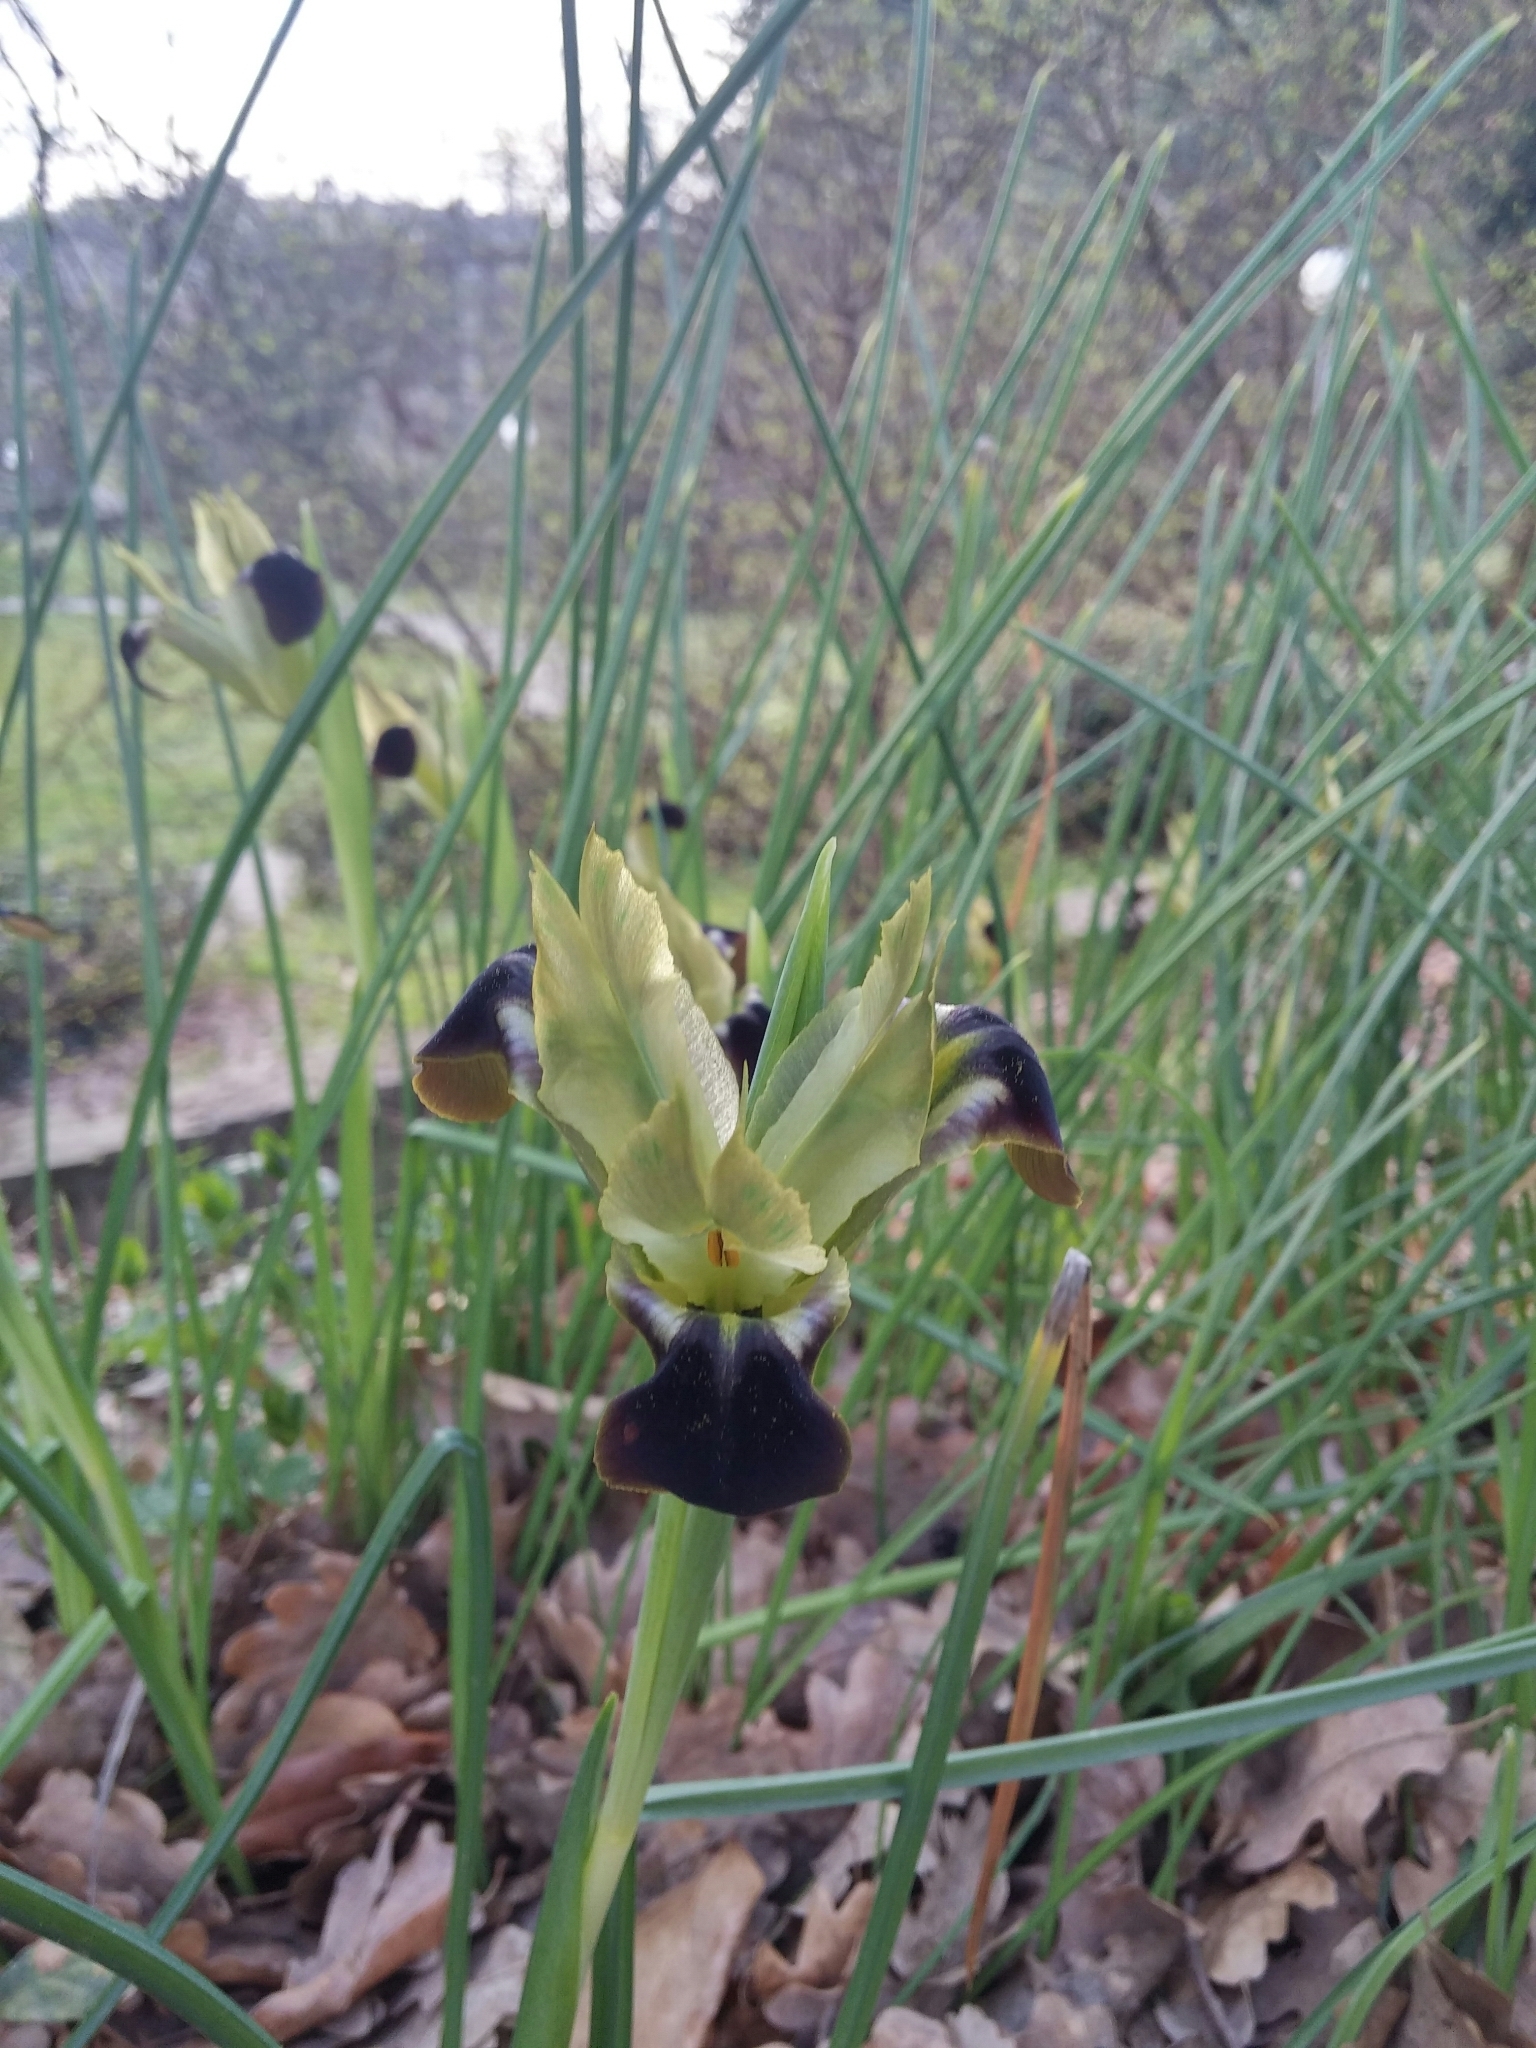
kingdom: Plantae
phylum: Tracheophyta
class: Liliopsida
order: Asparagales
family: Iridaceae
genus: Iris
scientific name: Iris tuberosa
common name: Snake's-head iris
